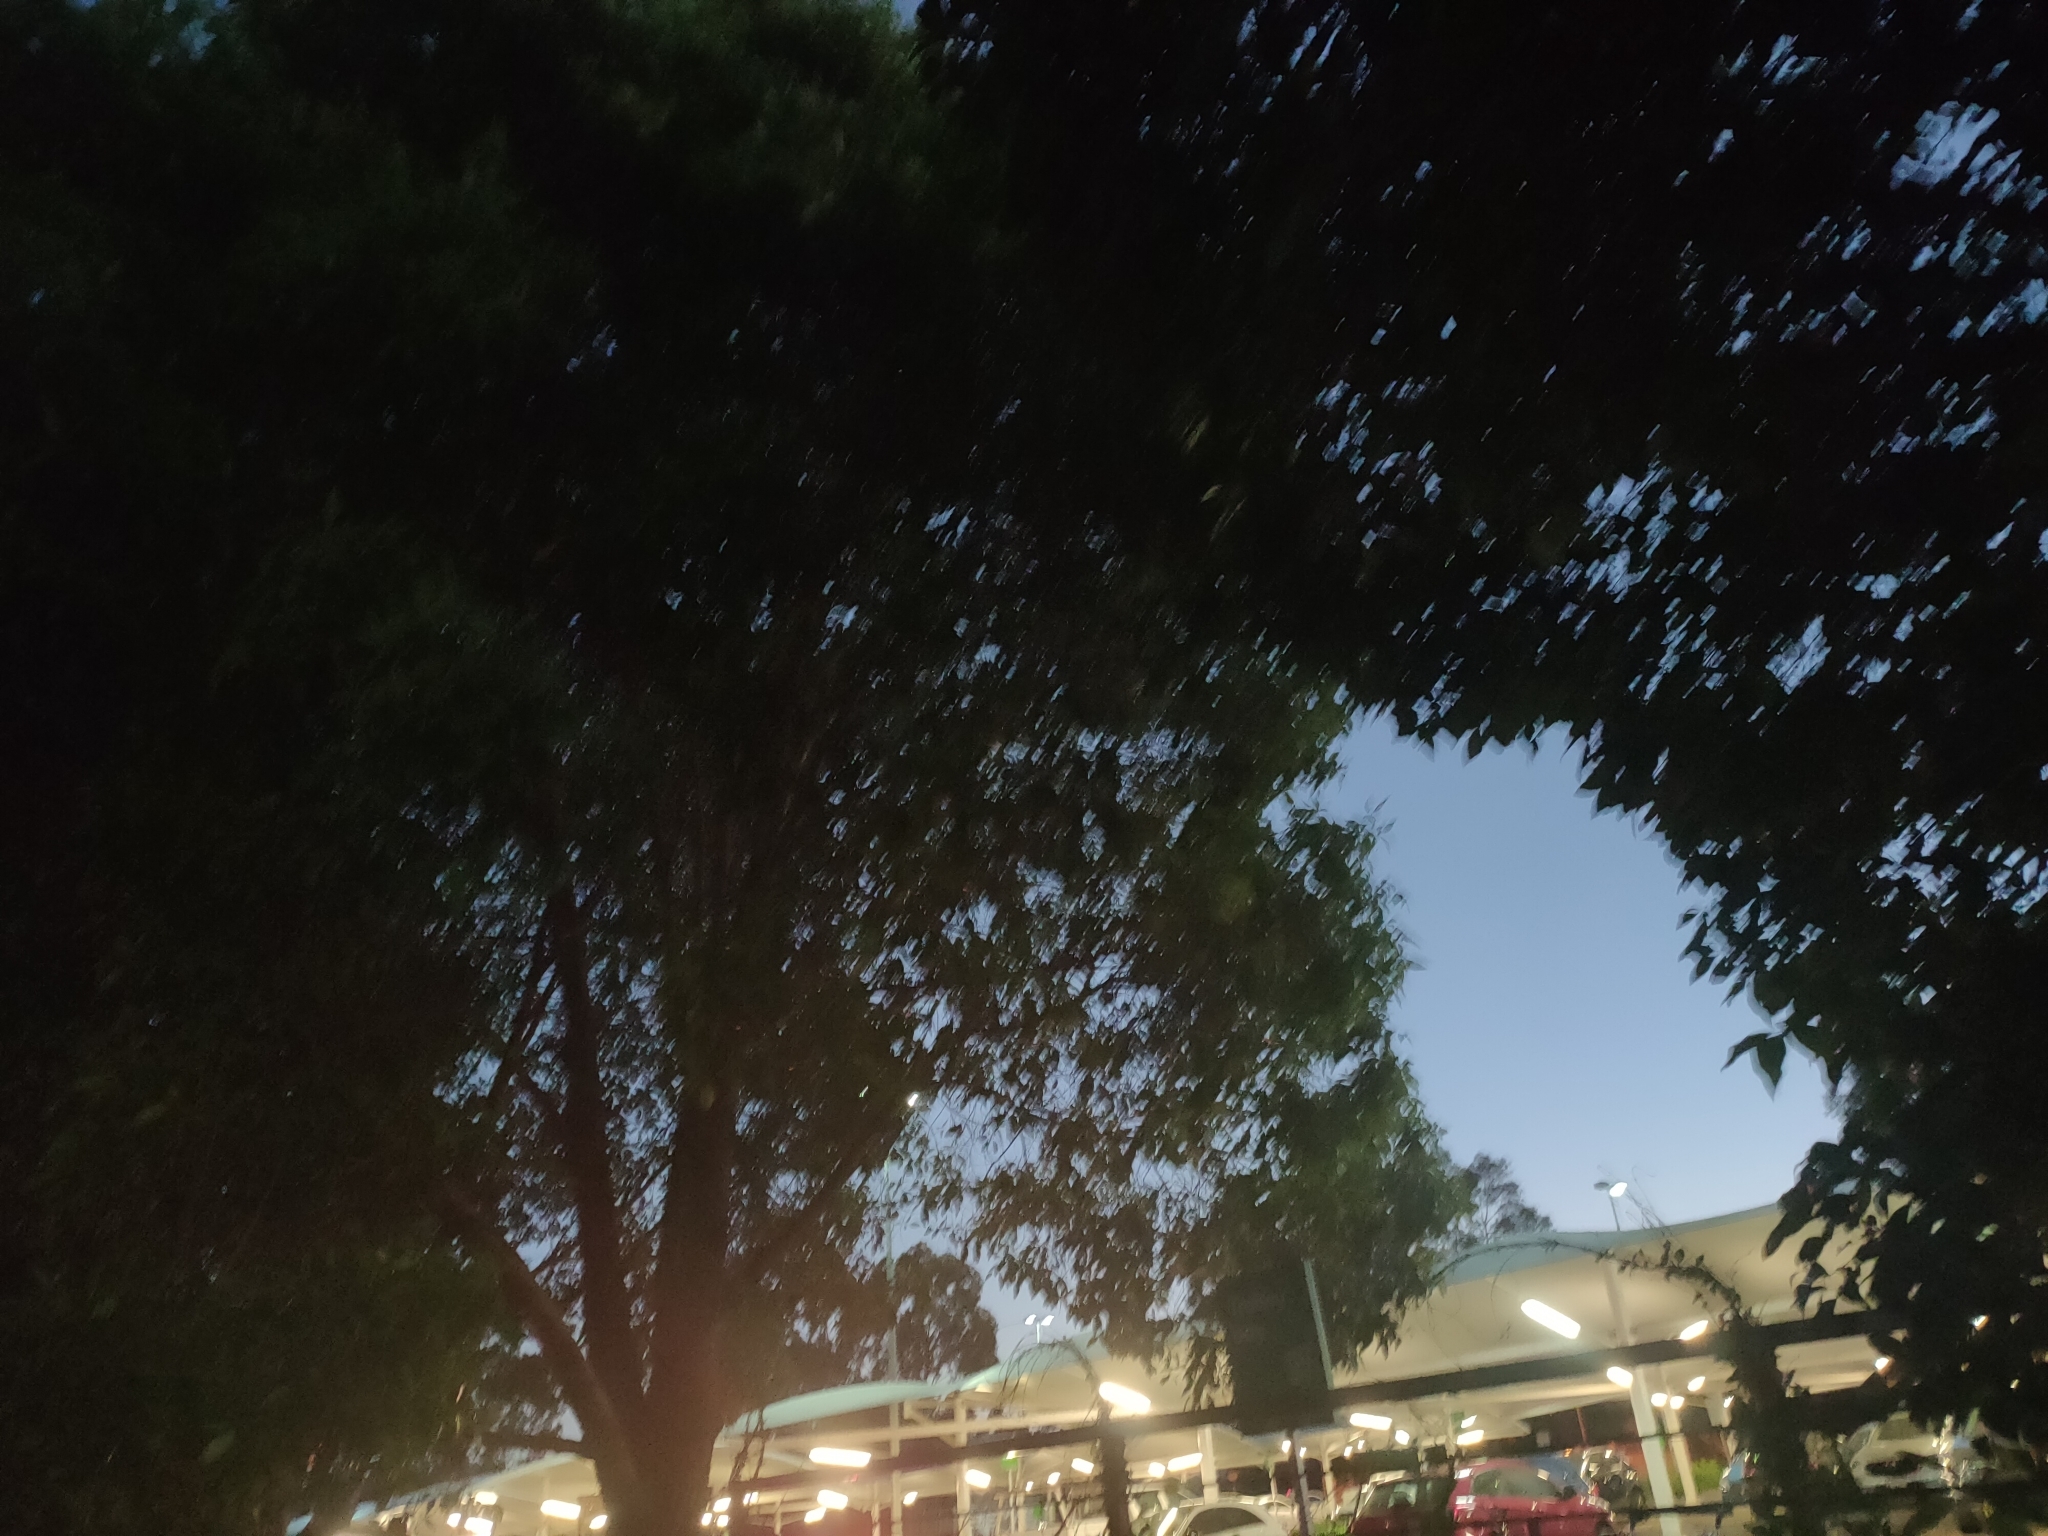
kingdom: Animalia
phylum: Chordata
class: Aves
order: Passeriformes
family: Sturnidae
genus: Acridotheres
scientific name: Acridotheres tristis
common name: Common myna
